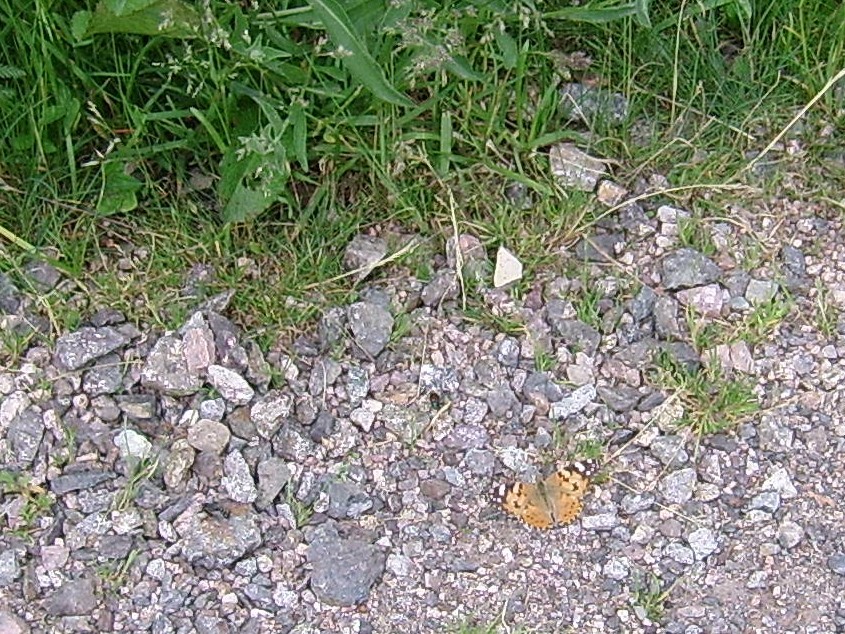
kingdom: Animalia
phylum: Arthropoda
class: Insecta
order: Lepidoptera
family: Nymphalidae
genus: Vanessa
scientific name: Vanessa cardui
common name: Painted lady
